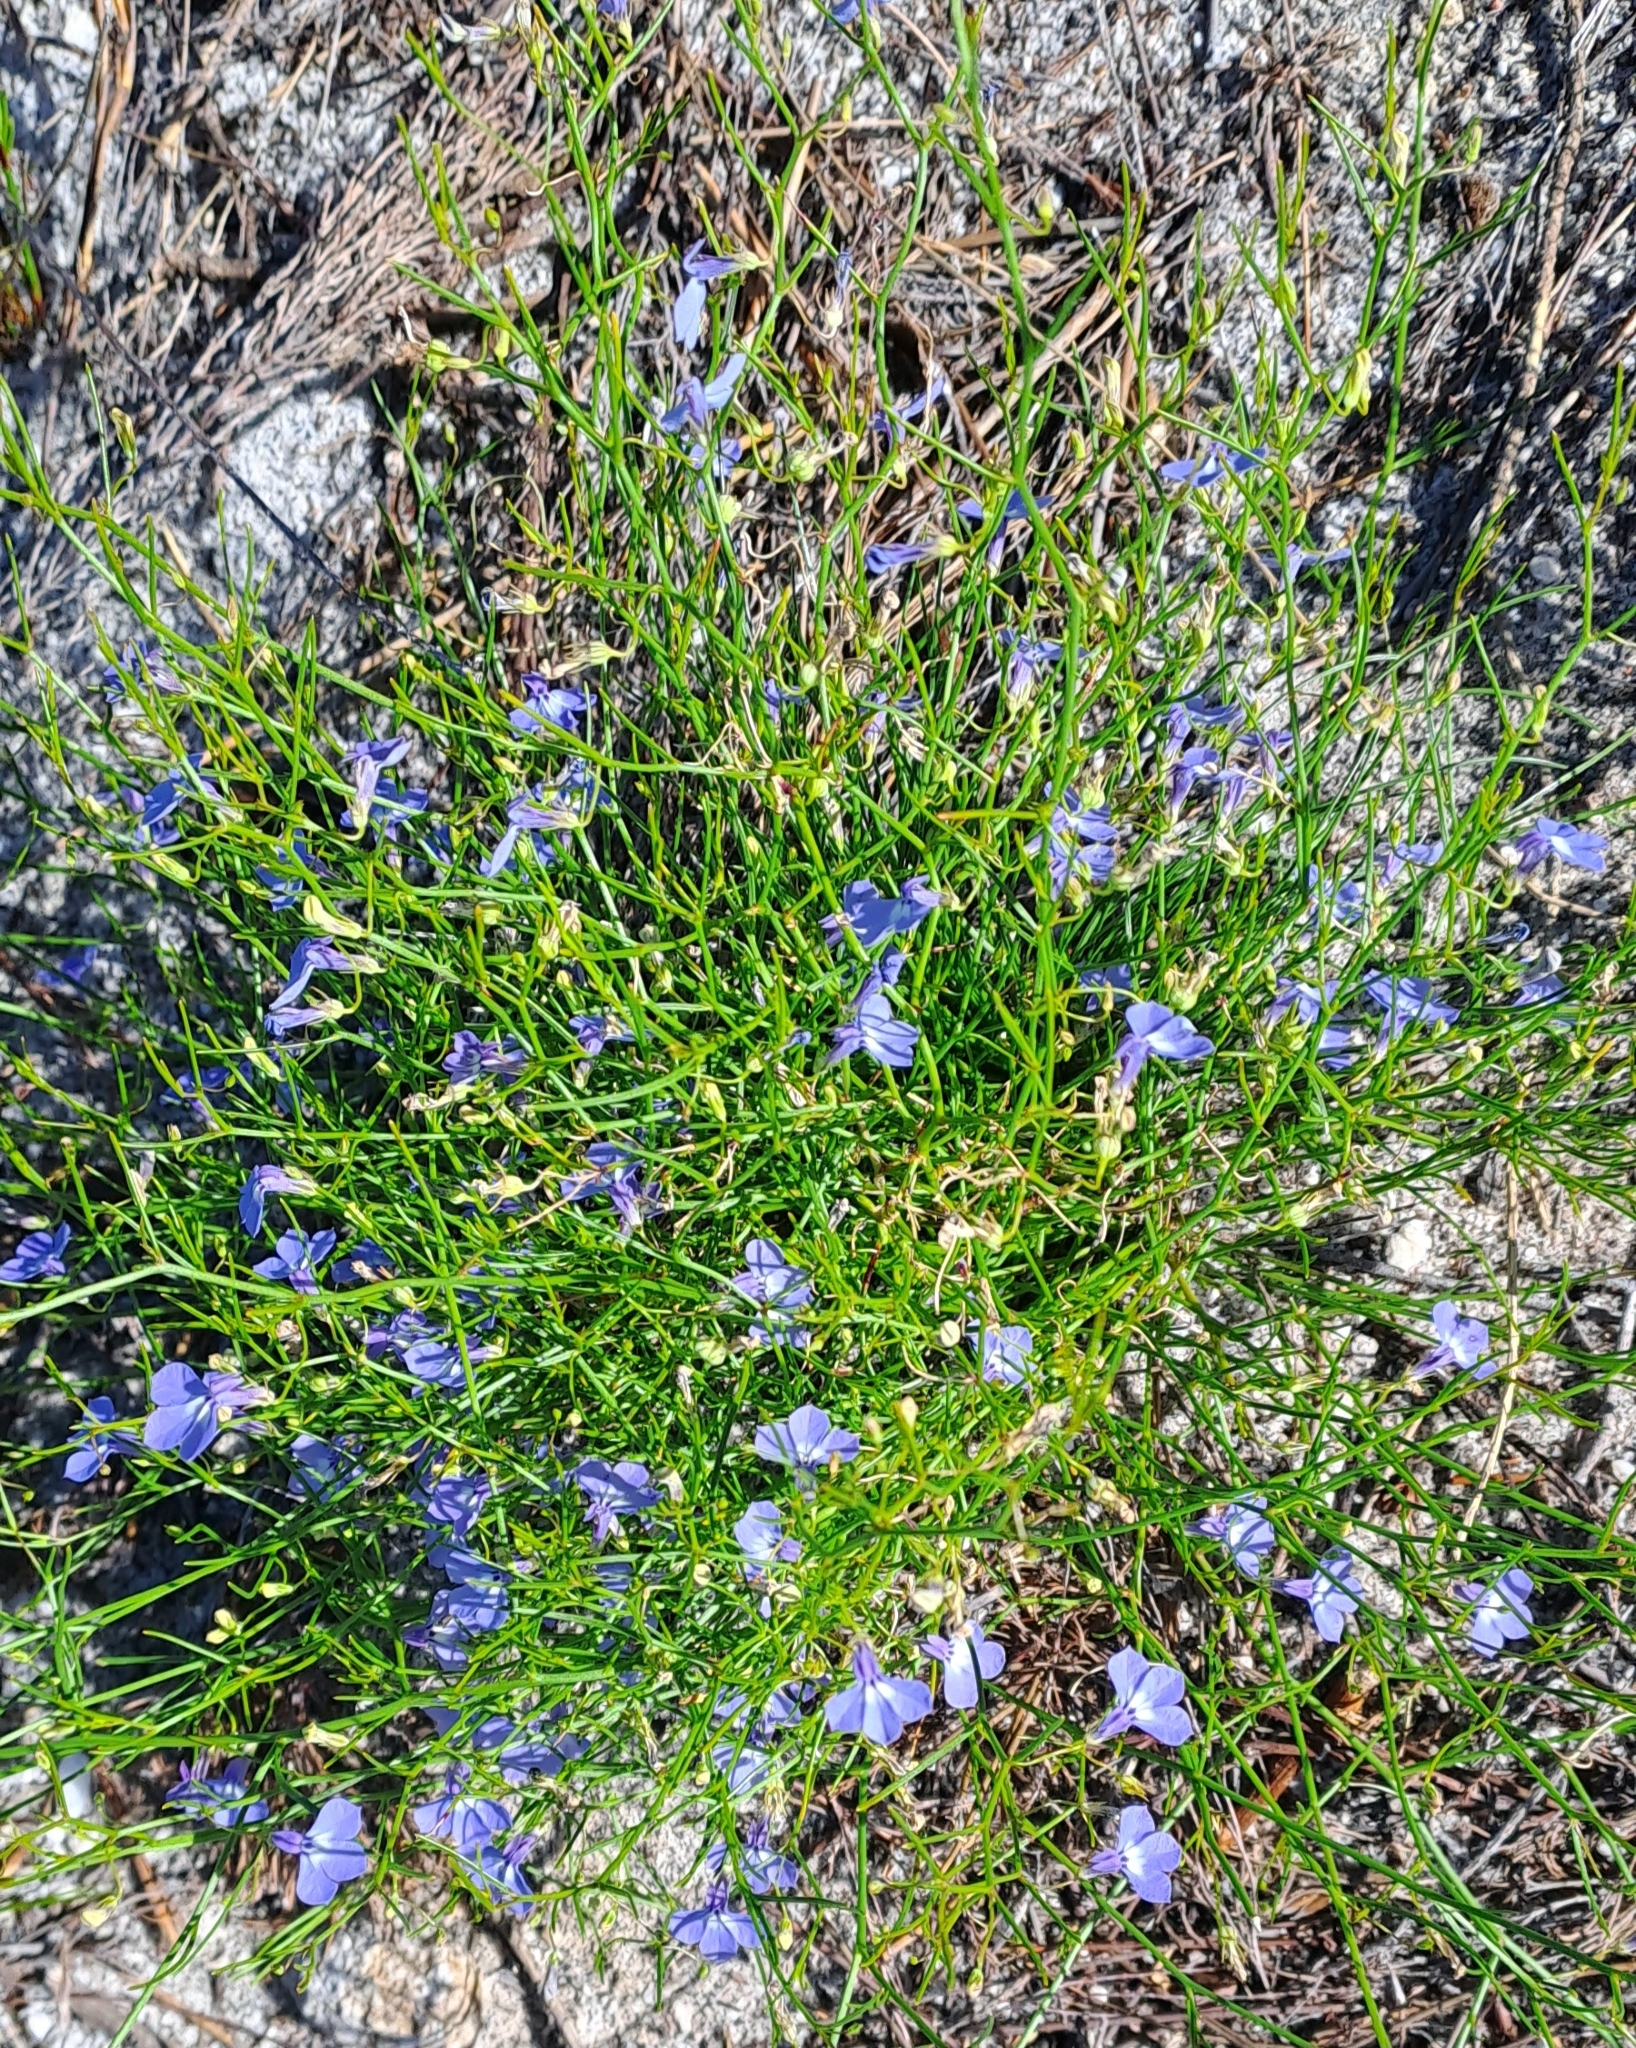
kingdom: Plantae
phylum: Tracheophyta
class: Magnoliopsida
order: Asterales
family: Campanulaceae
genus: Lobelia
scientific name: Lobelia setacea
